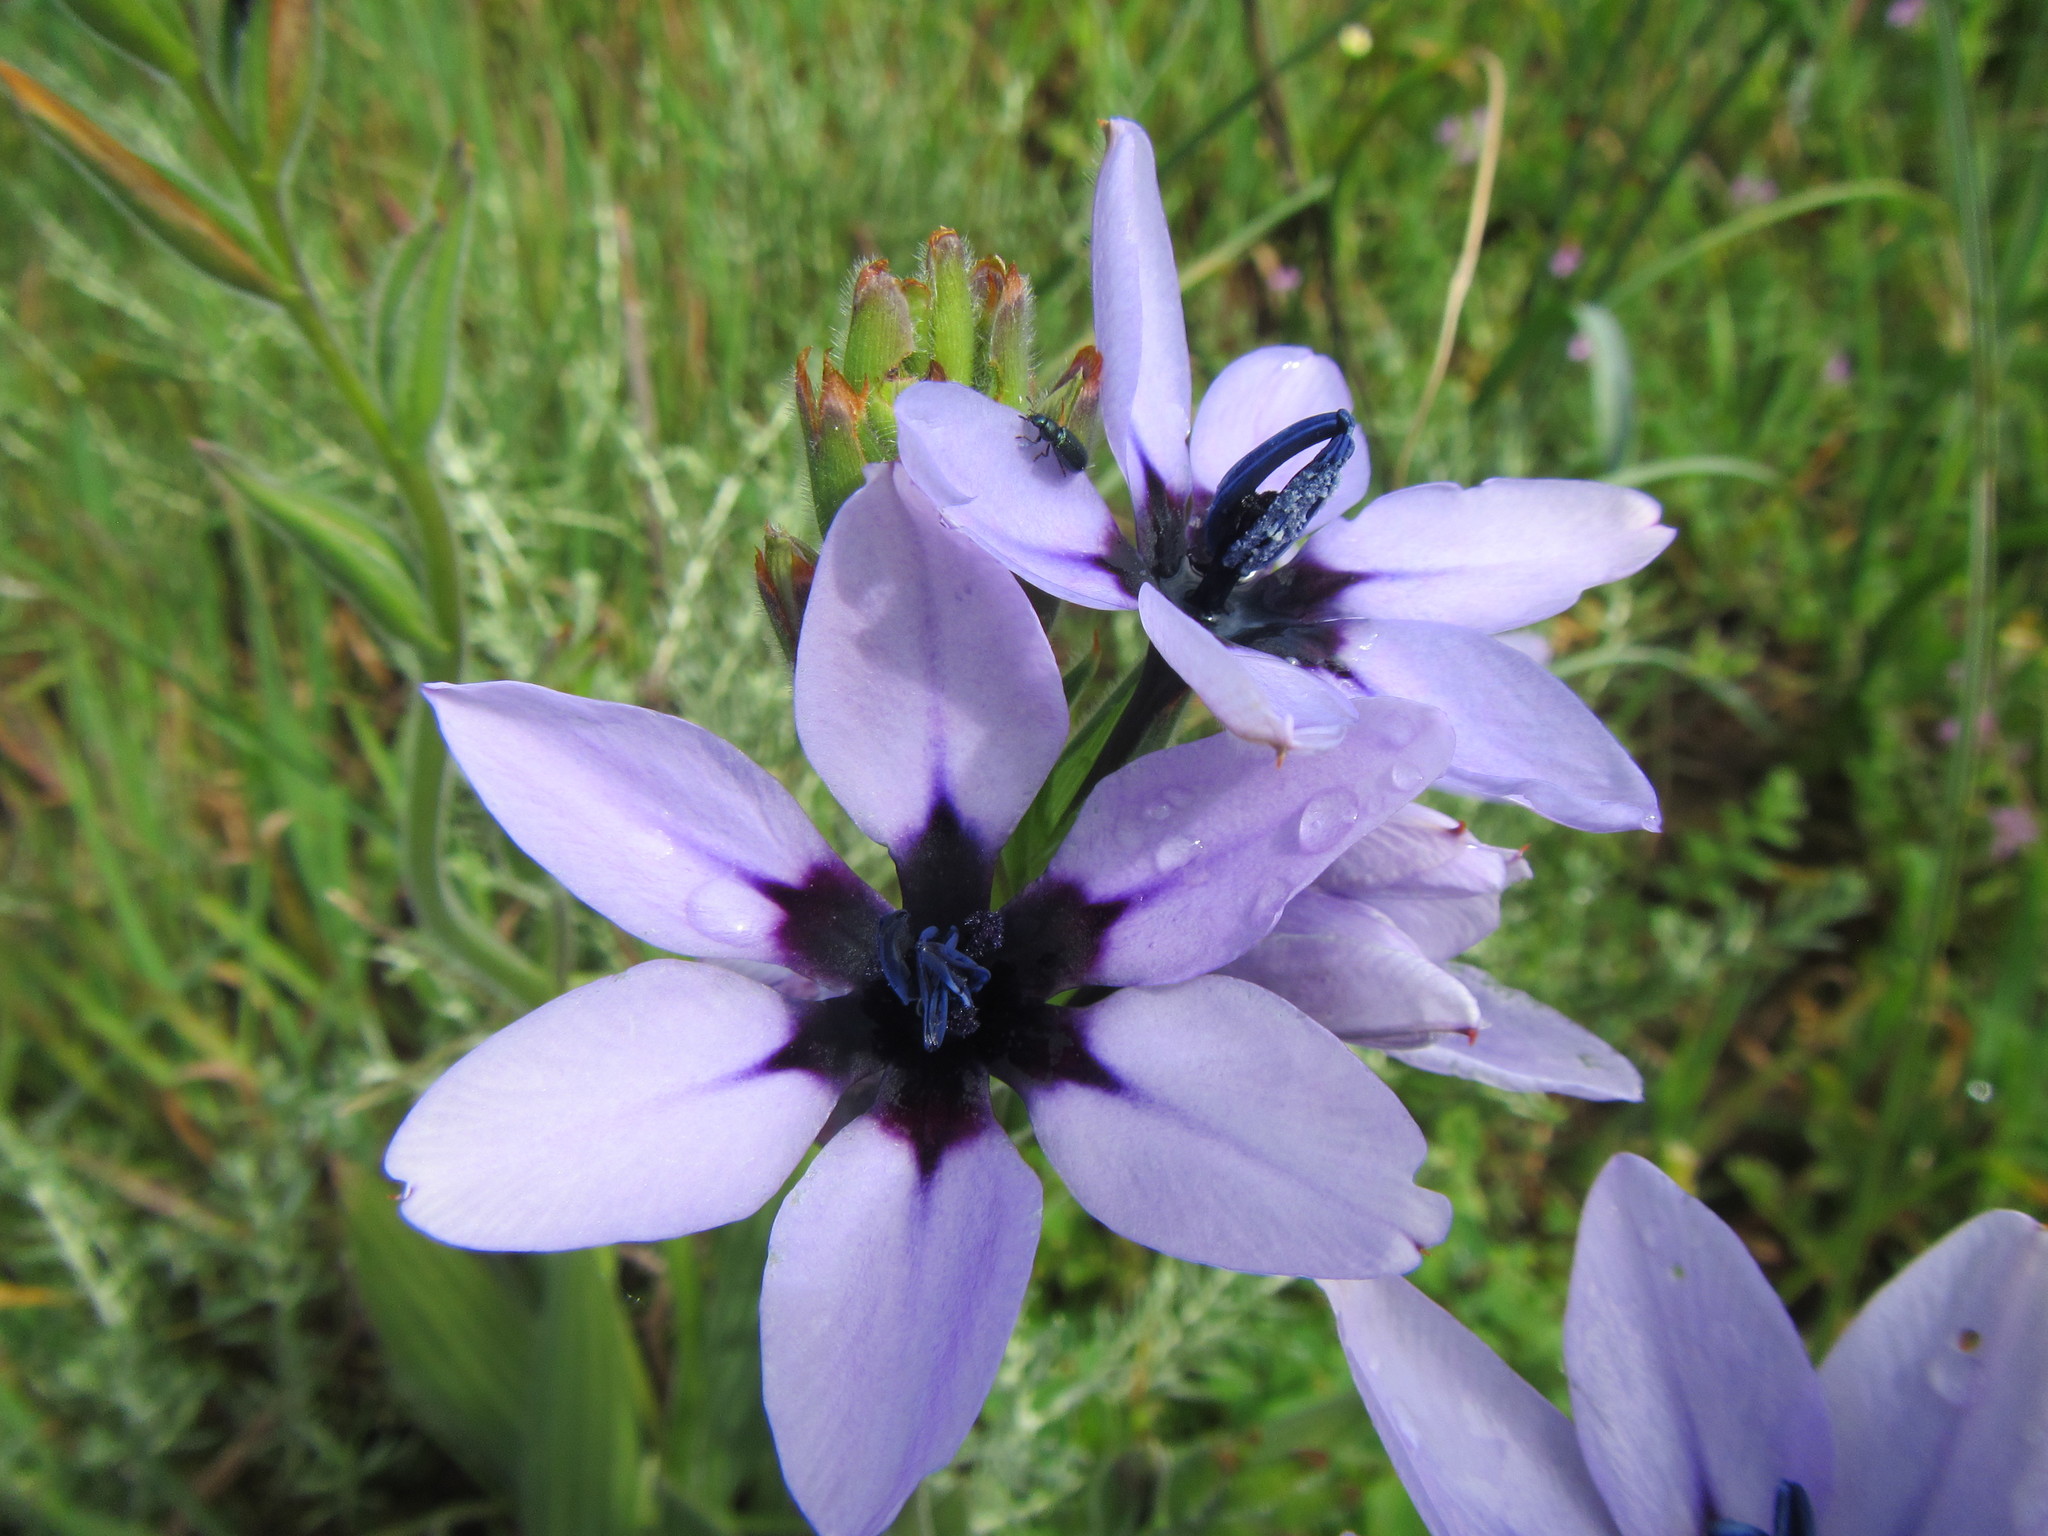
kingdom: Plantae
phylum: Tracheophyta
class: Liliopsida
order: Asparagales
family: Iridaceae
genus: Babiana
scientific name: Babiana melanops
